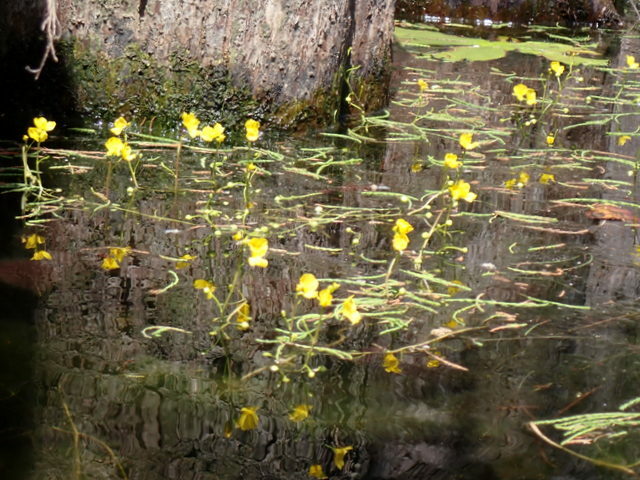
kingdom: Plantae
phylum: Tracheophyta
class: Magnoliopsida
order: Lamiales
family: Lentibulariaceae
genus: Utricularia
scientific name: Utricularia floridana
